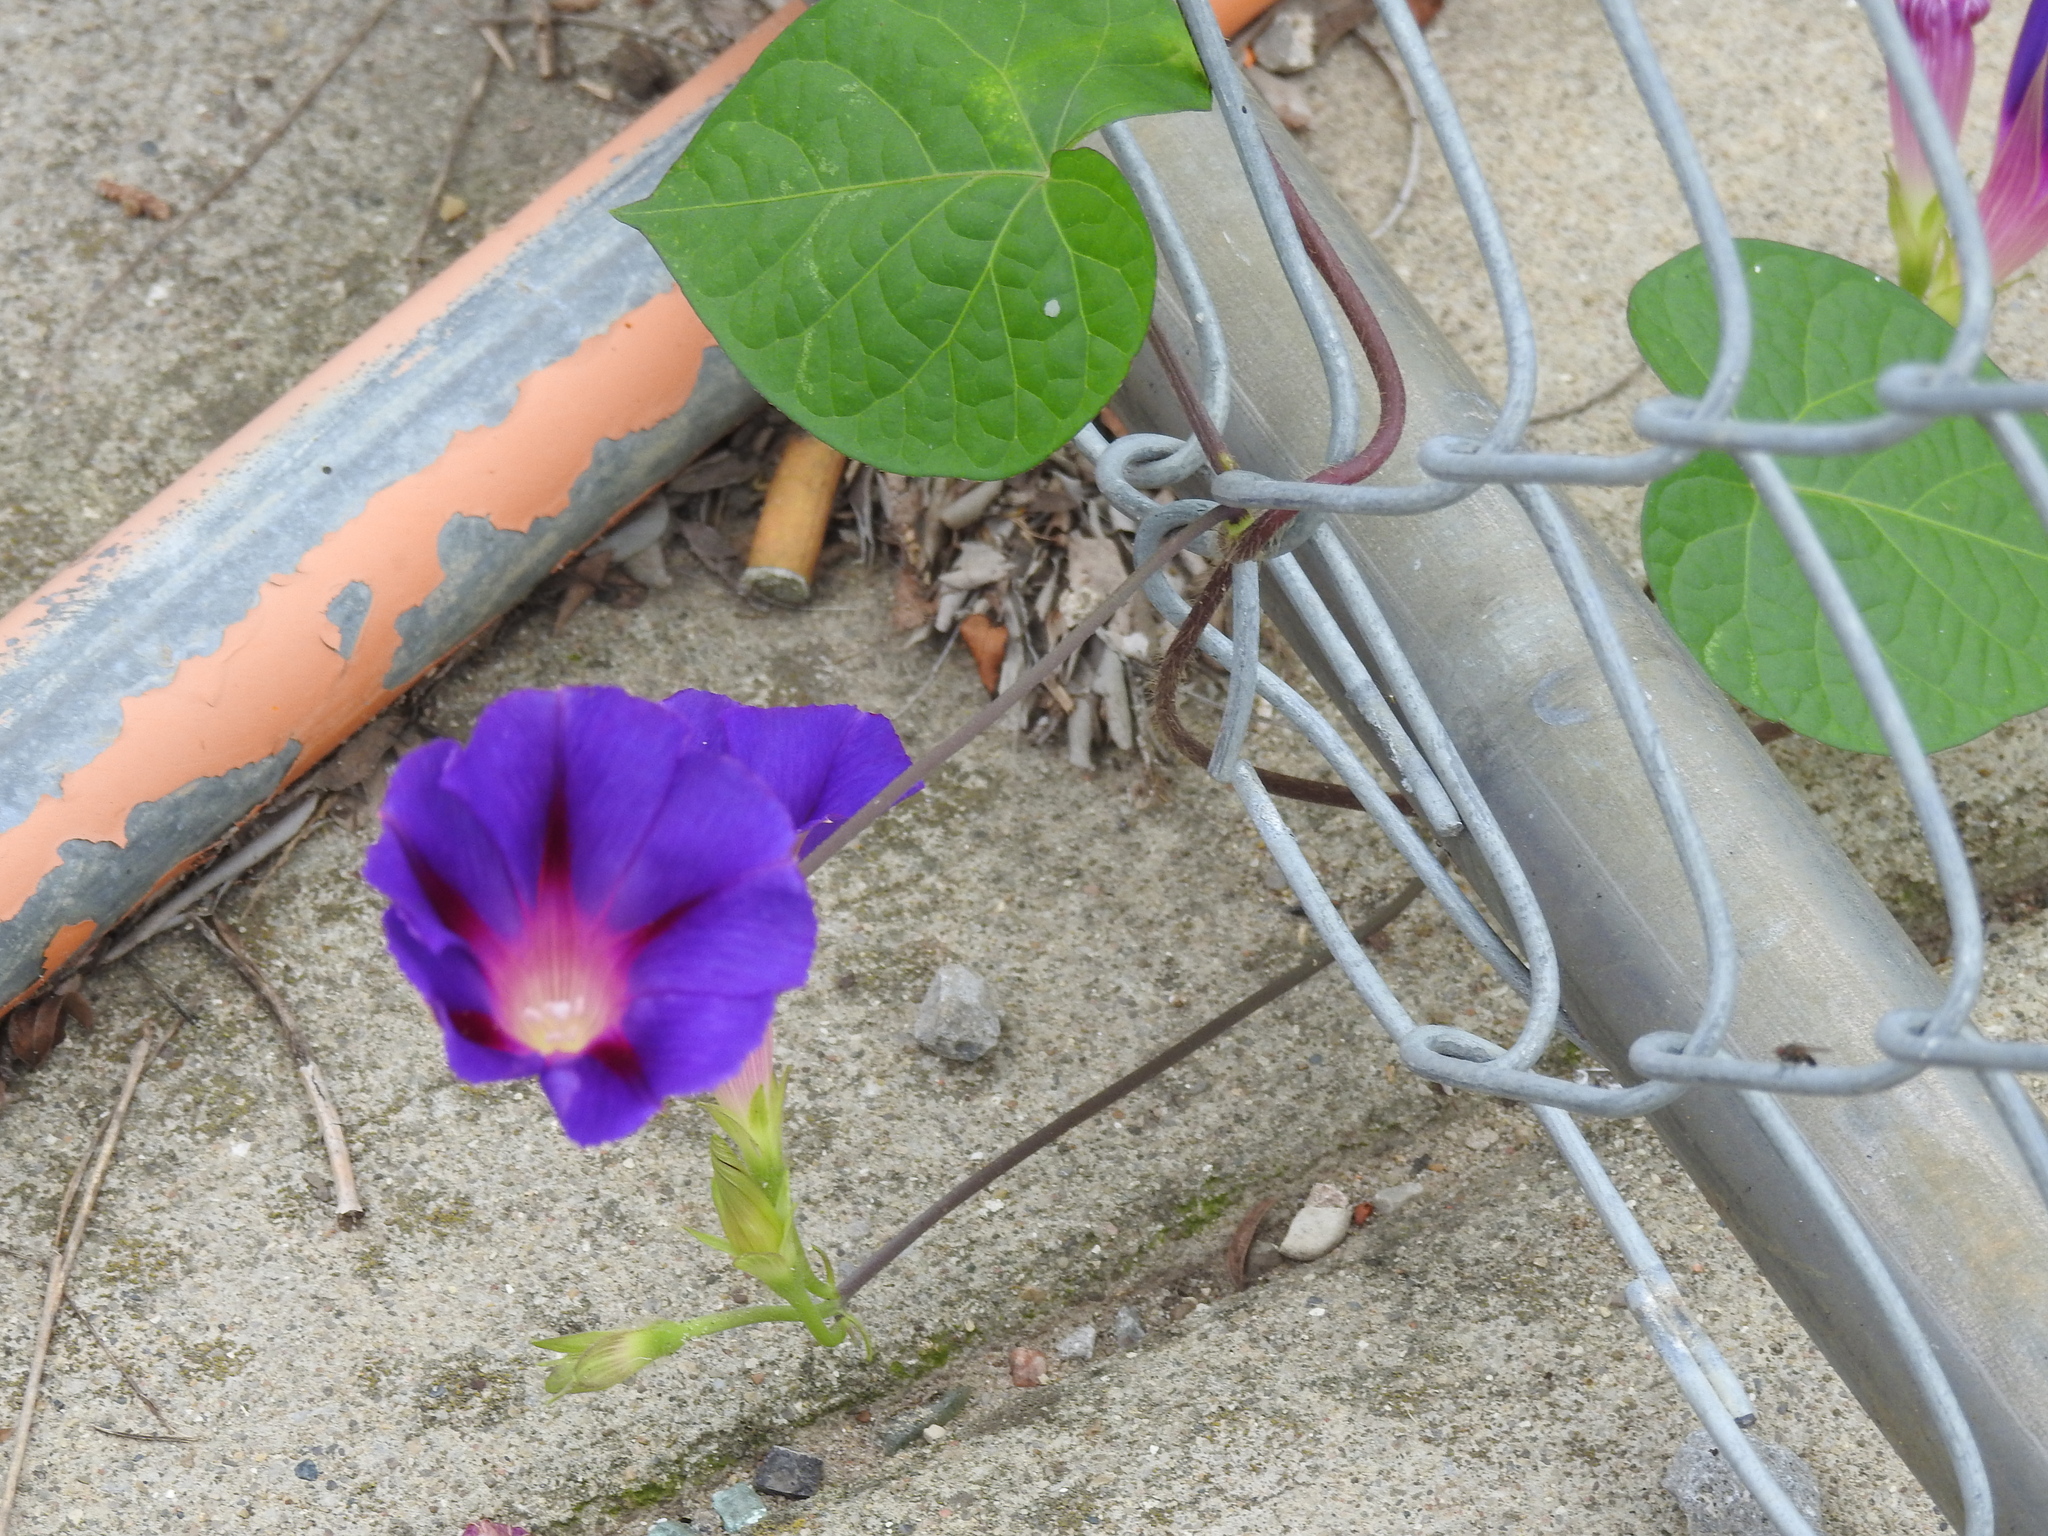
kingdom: Plantae
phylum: Tracheophyta
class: Magnoliopsida
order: Solanales
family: Convolvulaceae
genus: Ipomoea
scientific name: Ipomoea purpurea
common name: Common morning-glory
